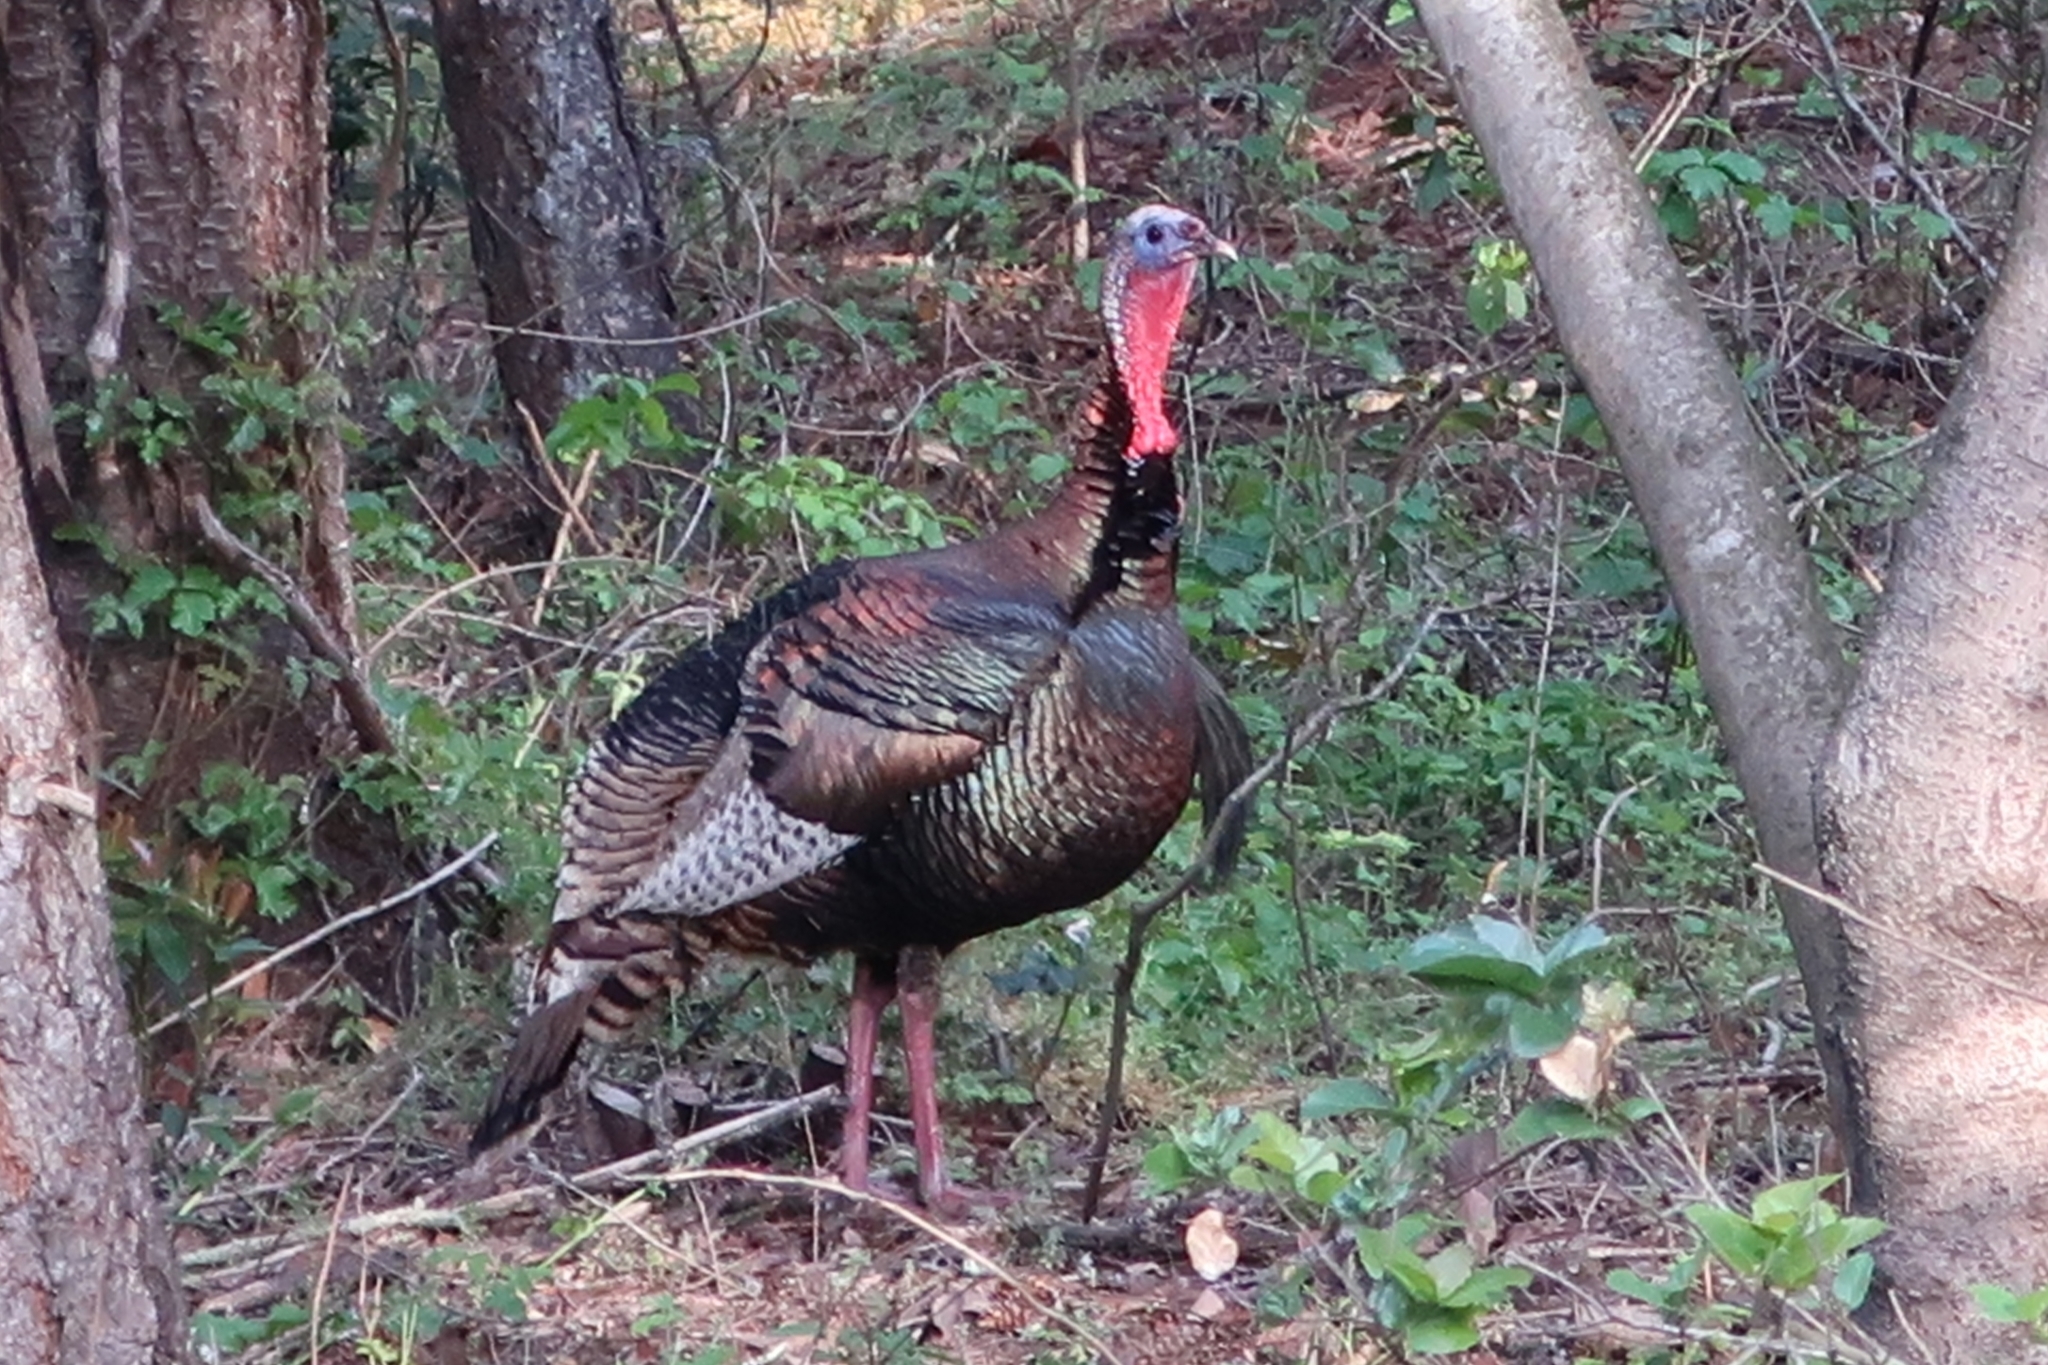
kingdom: Animalia
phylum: Chordata
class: Aves
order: Galliformes
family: Phasianidae
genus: Meleagris
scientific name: Meleagris gallopavo
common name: Wild turkey
